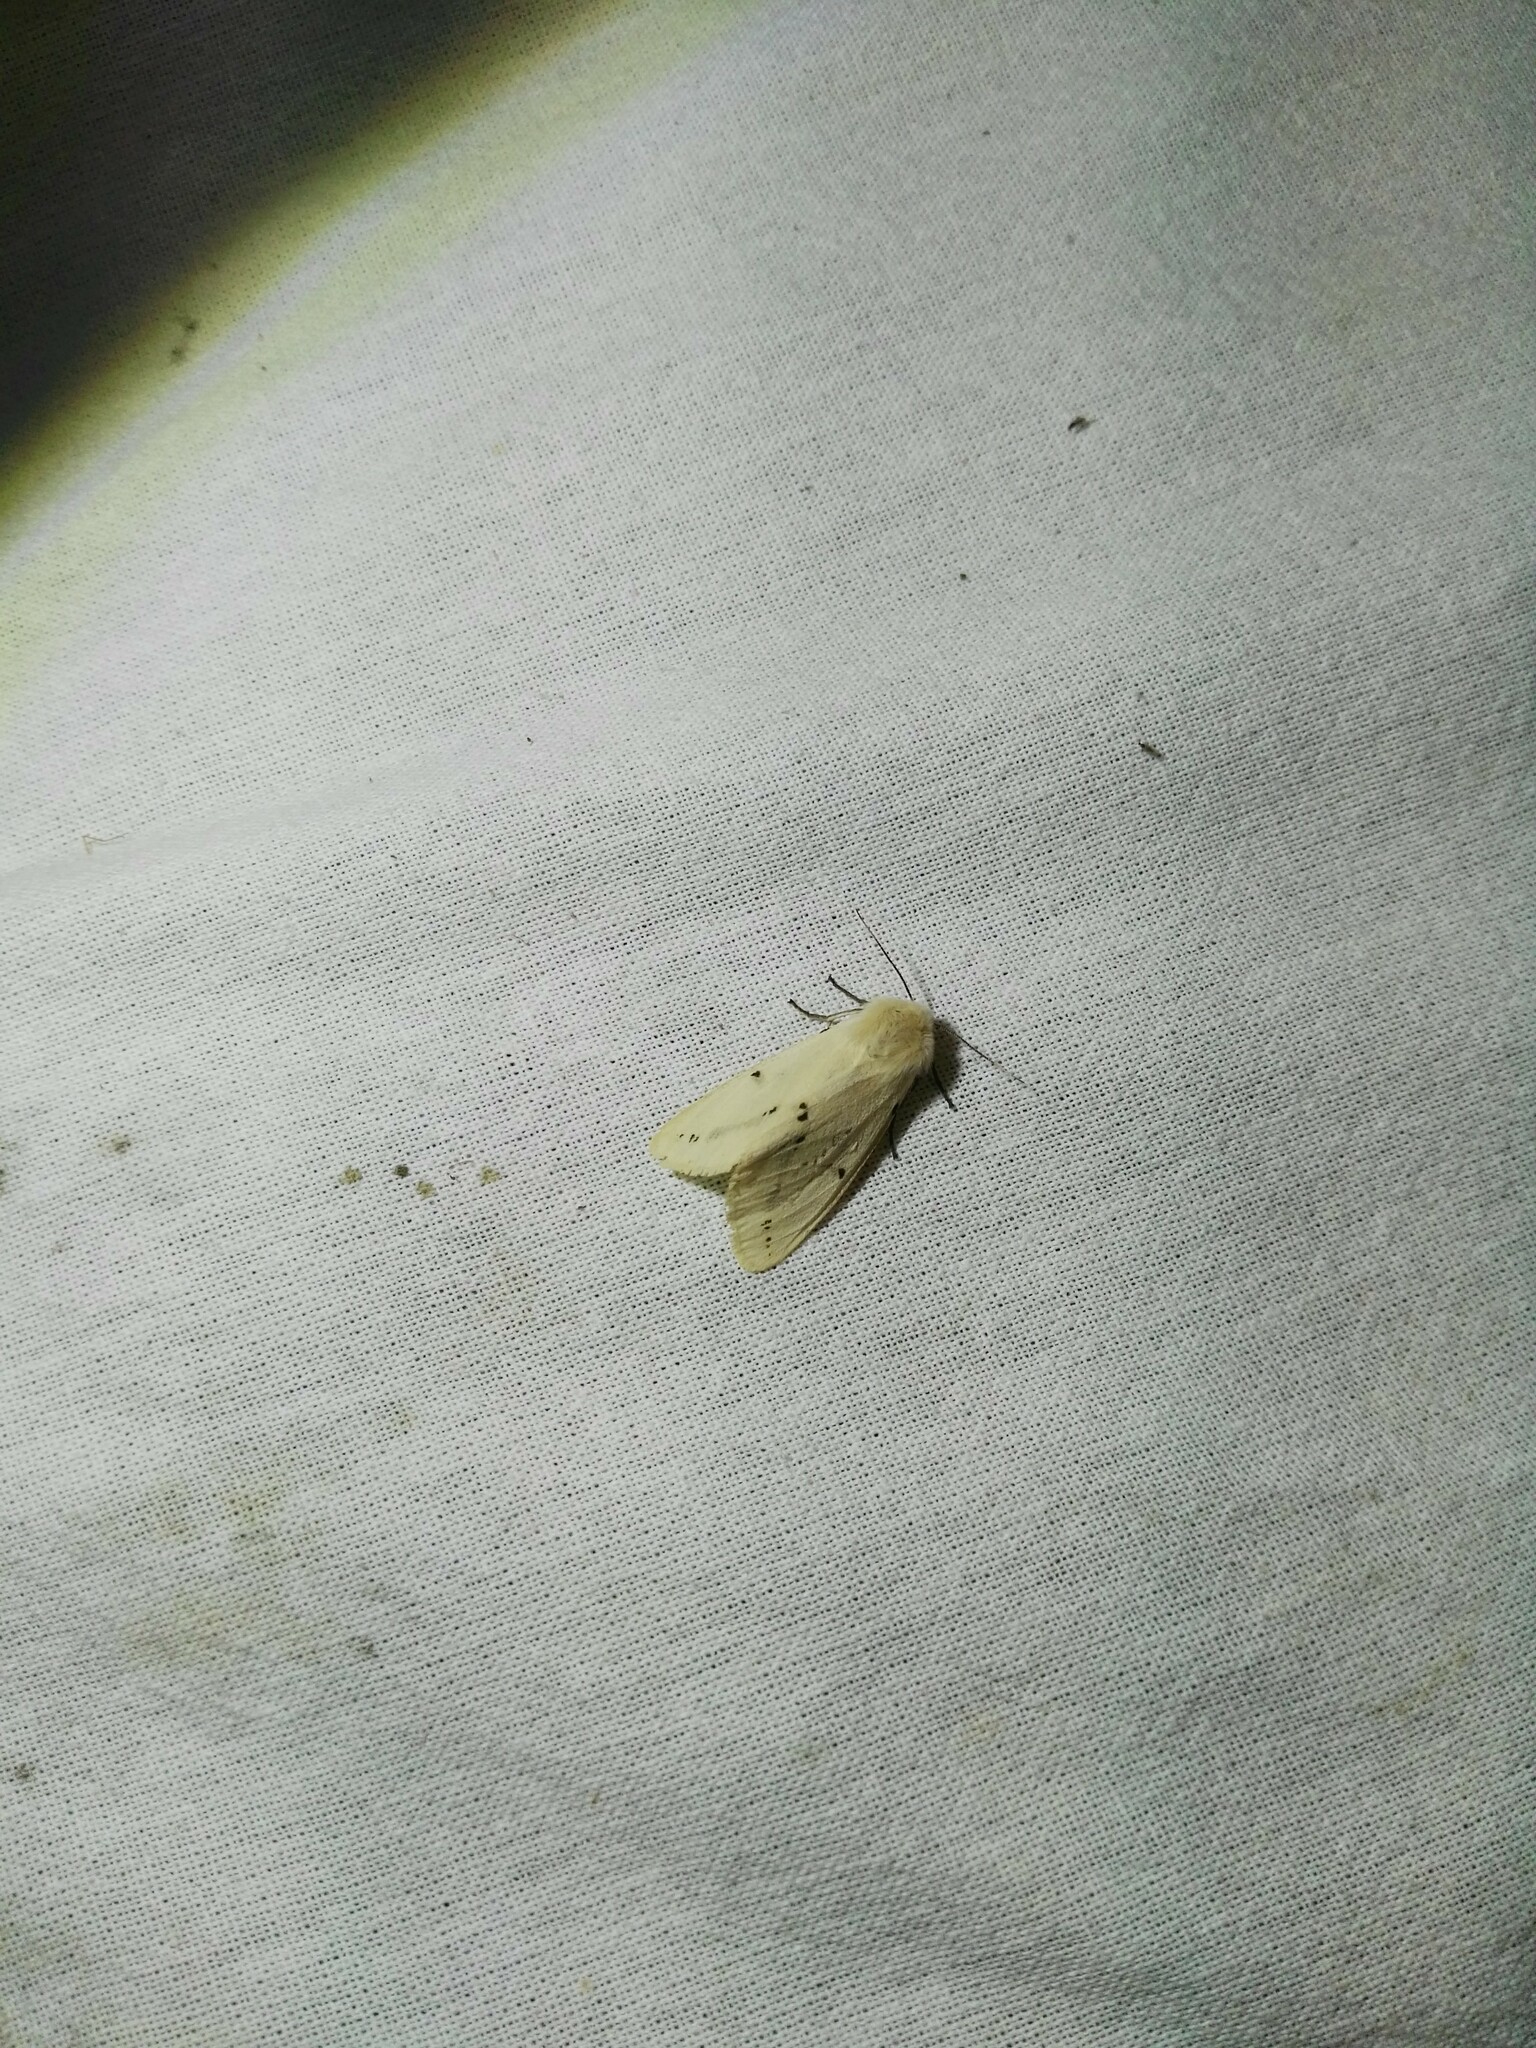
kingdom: Animalia
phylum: Arthropoda
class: Insecta
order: Lepidoptera
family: Erebidae
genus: Spilarctia
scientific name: Spilarctia lutea
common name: Buff ermine
